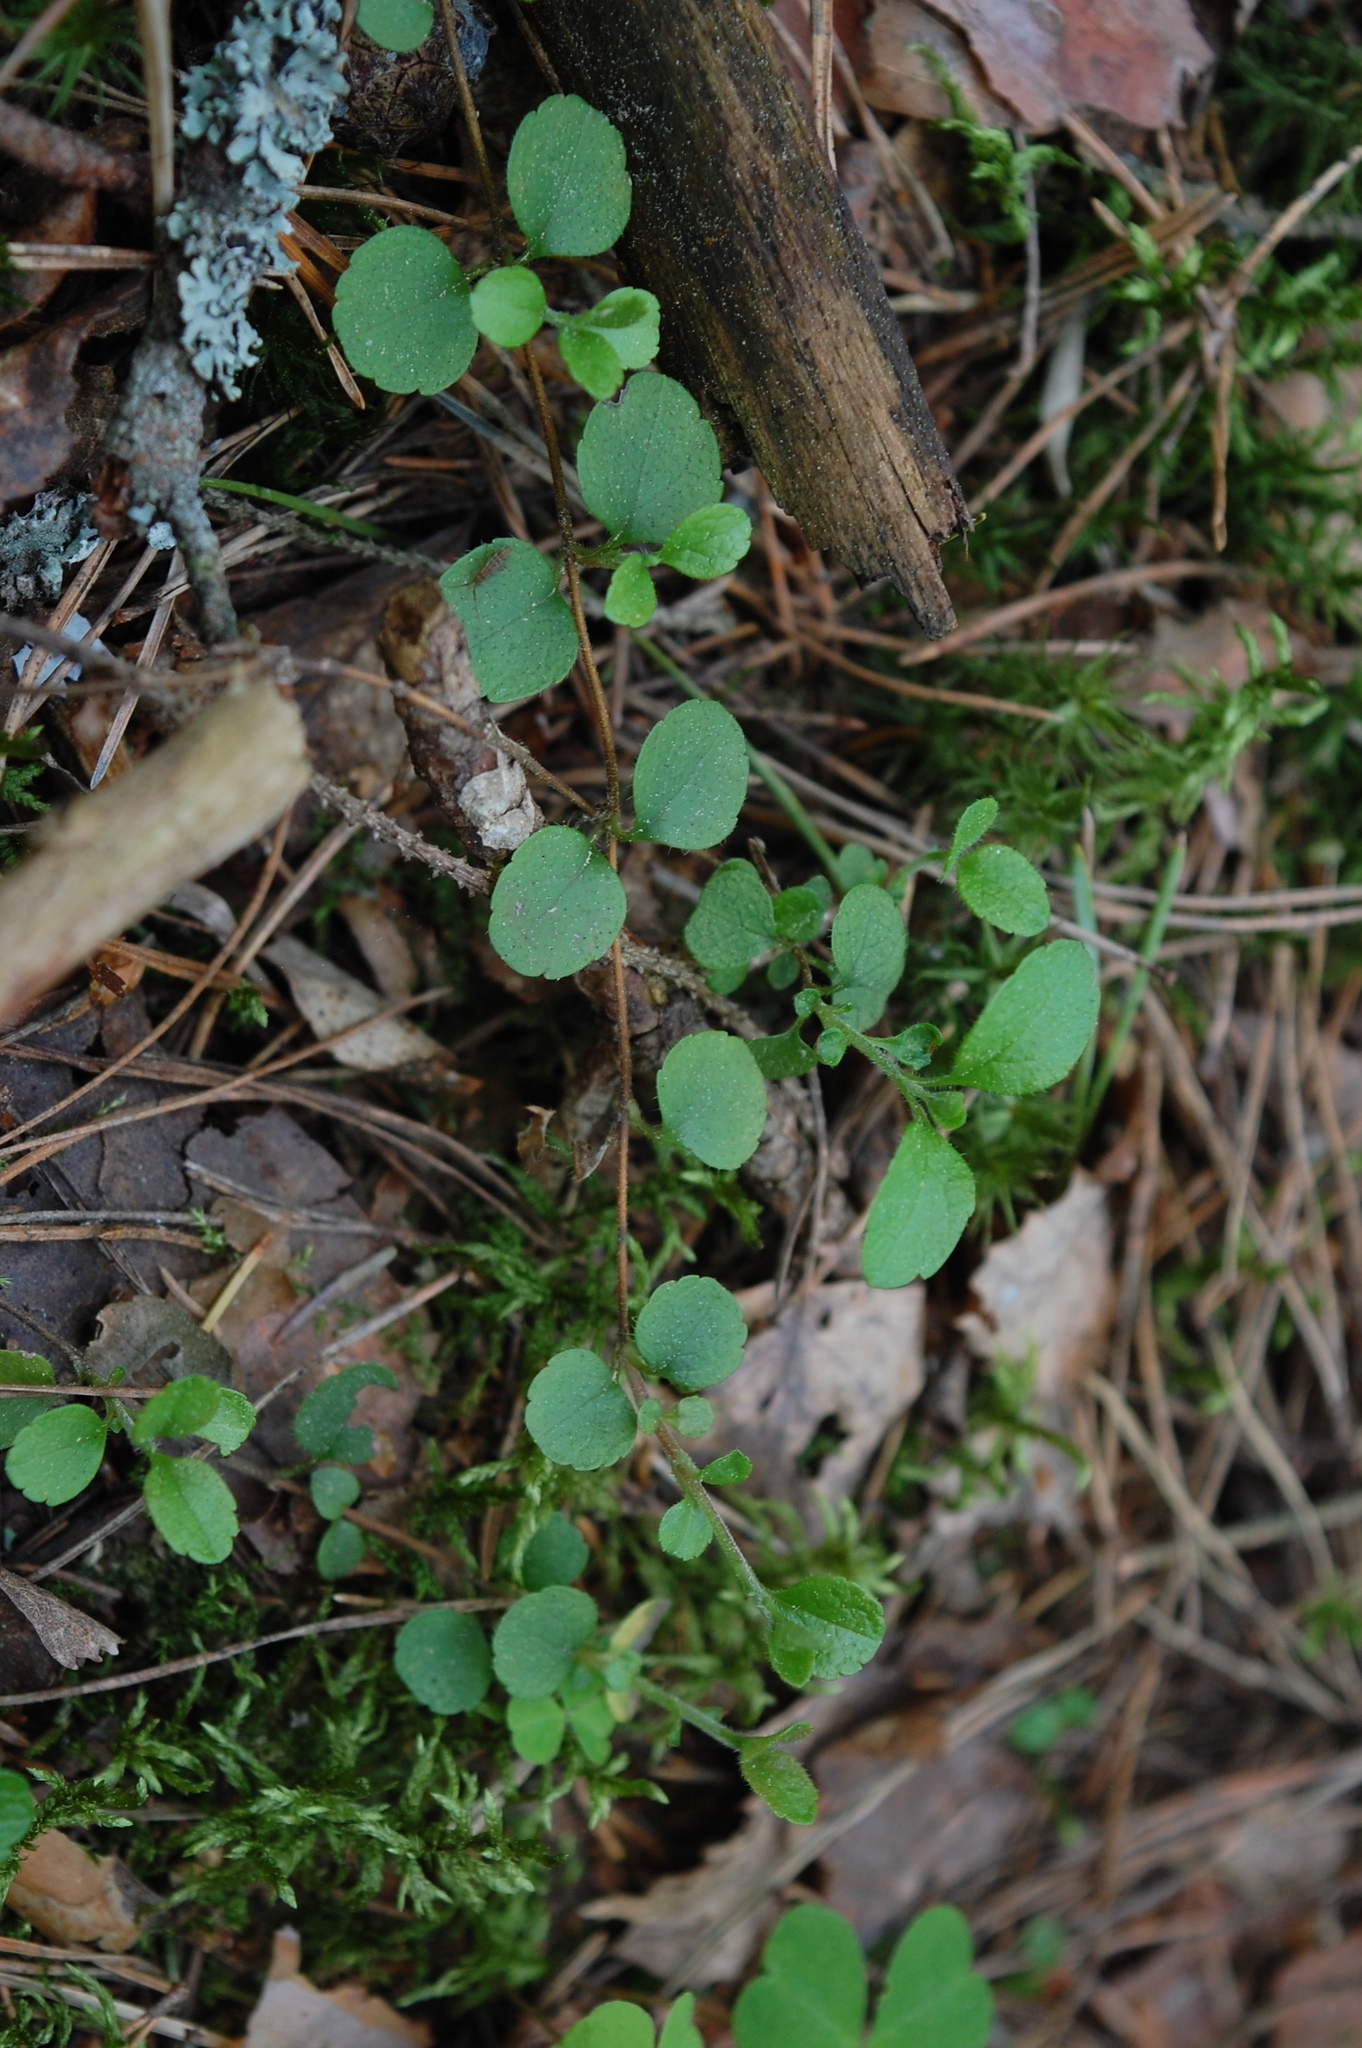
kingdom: Plantae
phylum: Tracheophyta
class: Magnoliopsida
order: Dipsacales
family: Caprifoliaceae
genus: Linnaea
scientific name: Linnaea borealis
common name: Twinflower
